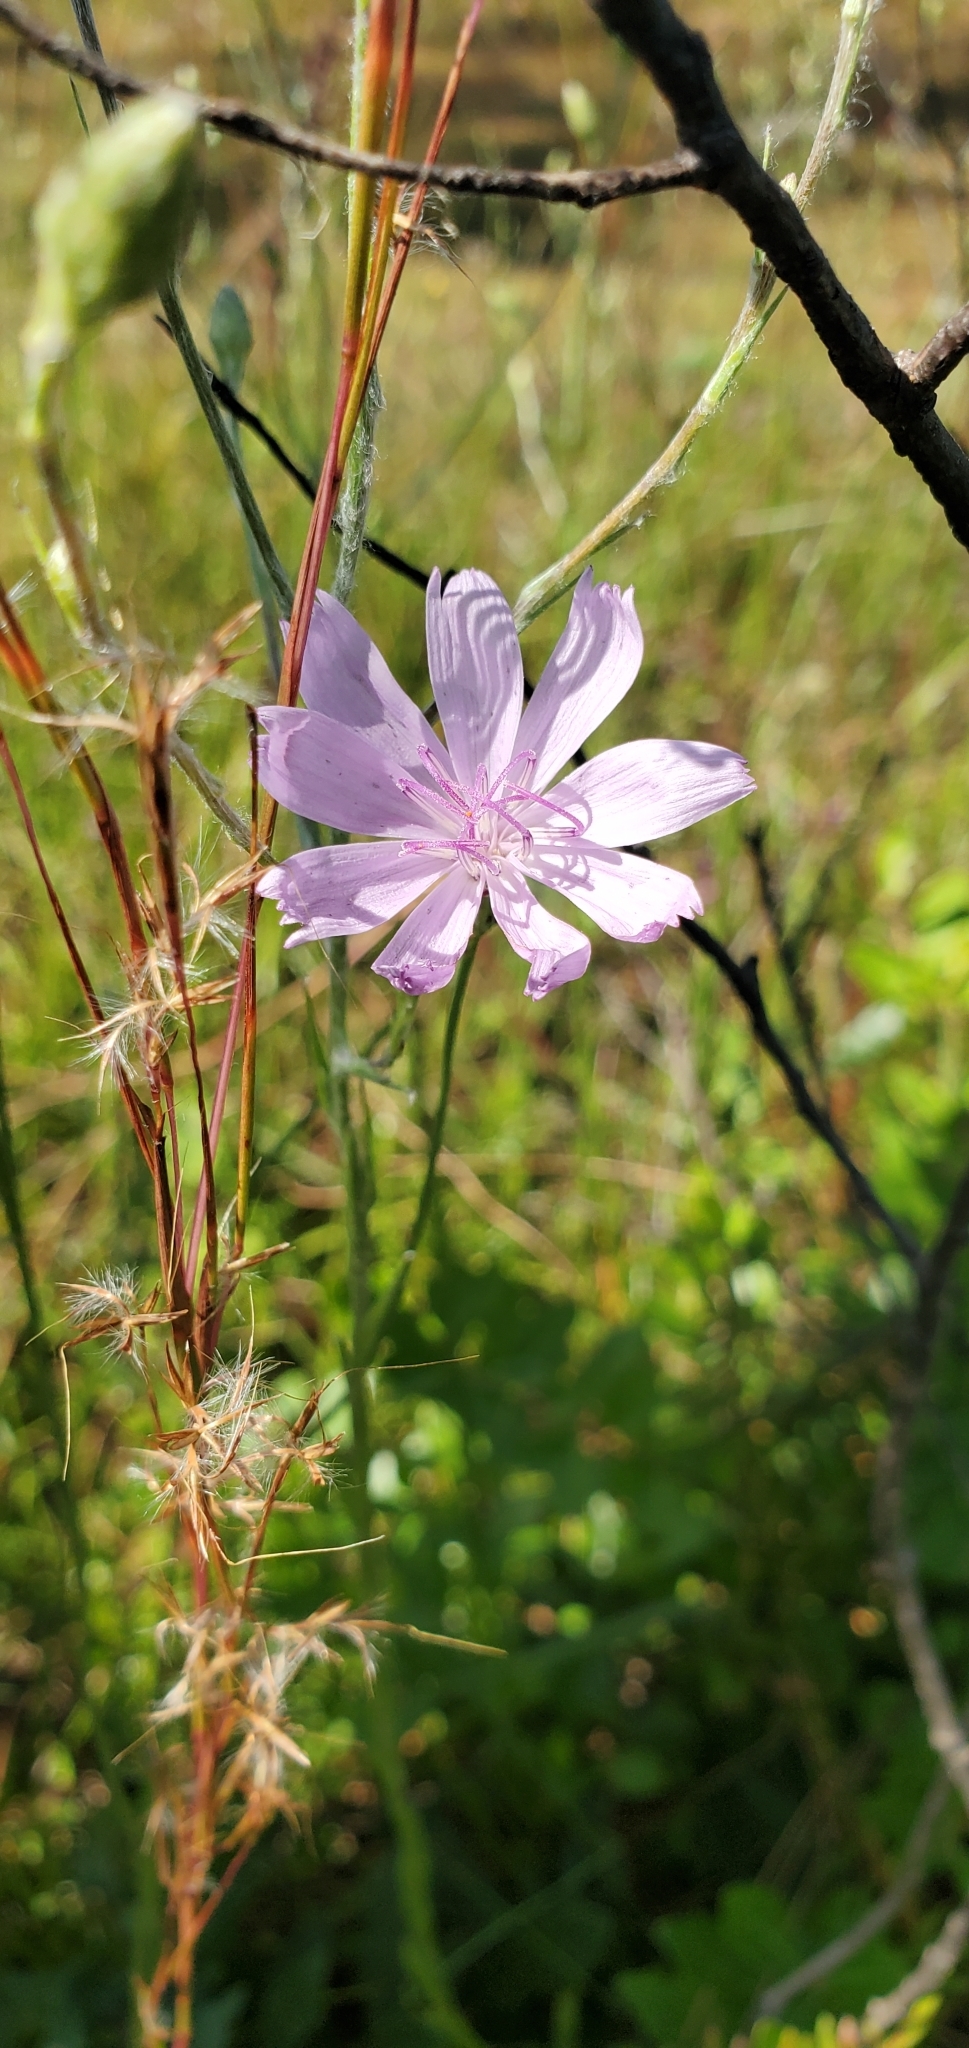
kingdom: Plantae
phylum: Tracheophyta
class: Magnoliopsida
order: Asterales
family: Asteraceae
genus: Lygodesmia
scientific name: Lygodesmia aphylla
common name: Rose-rush
